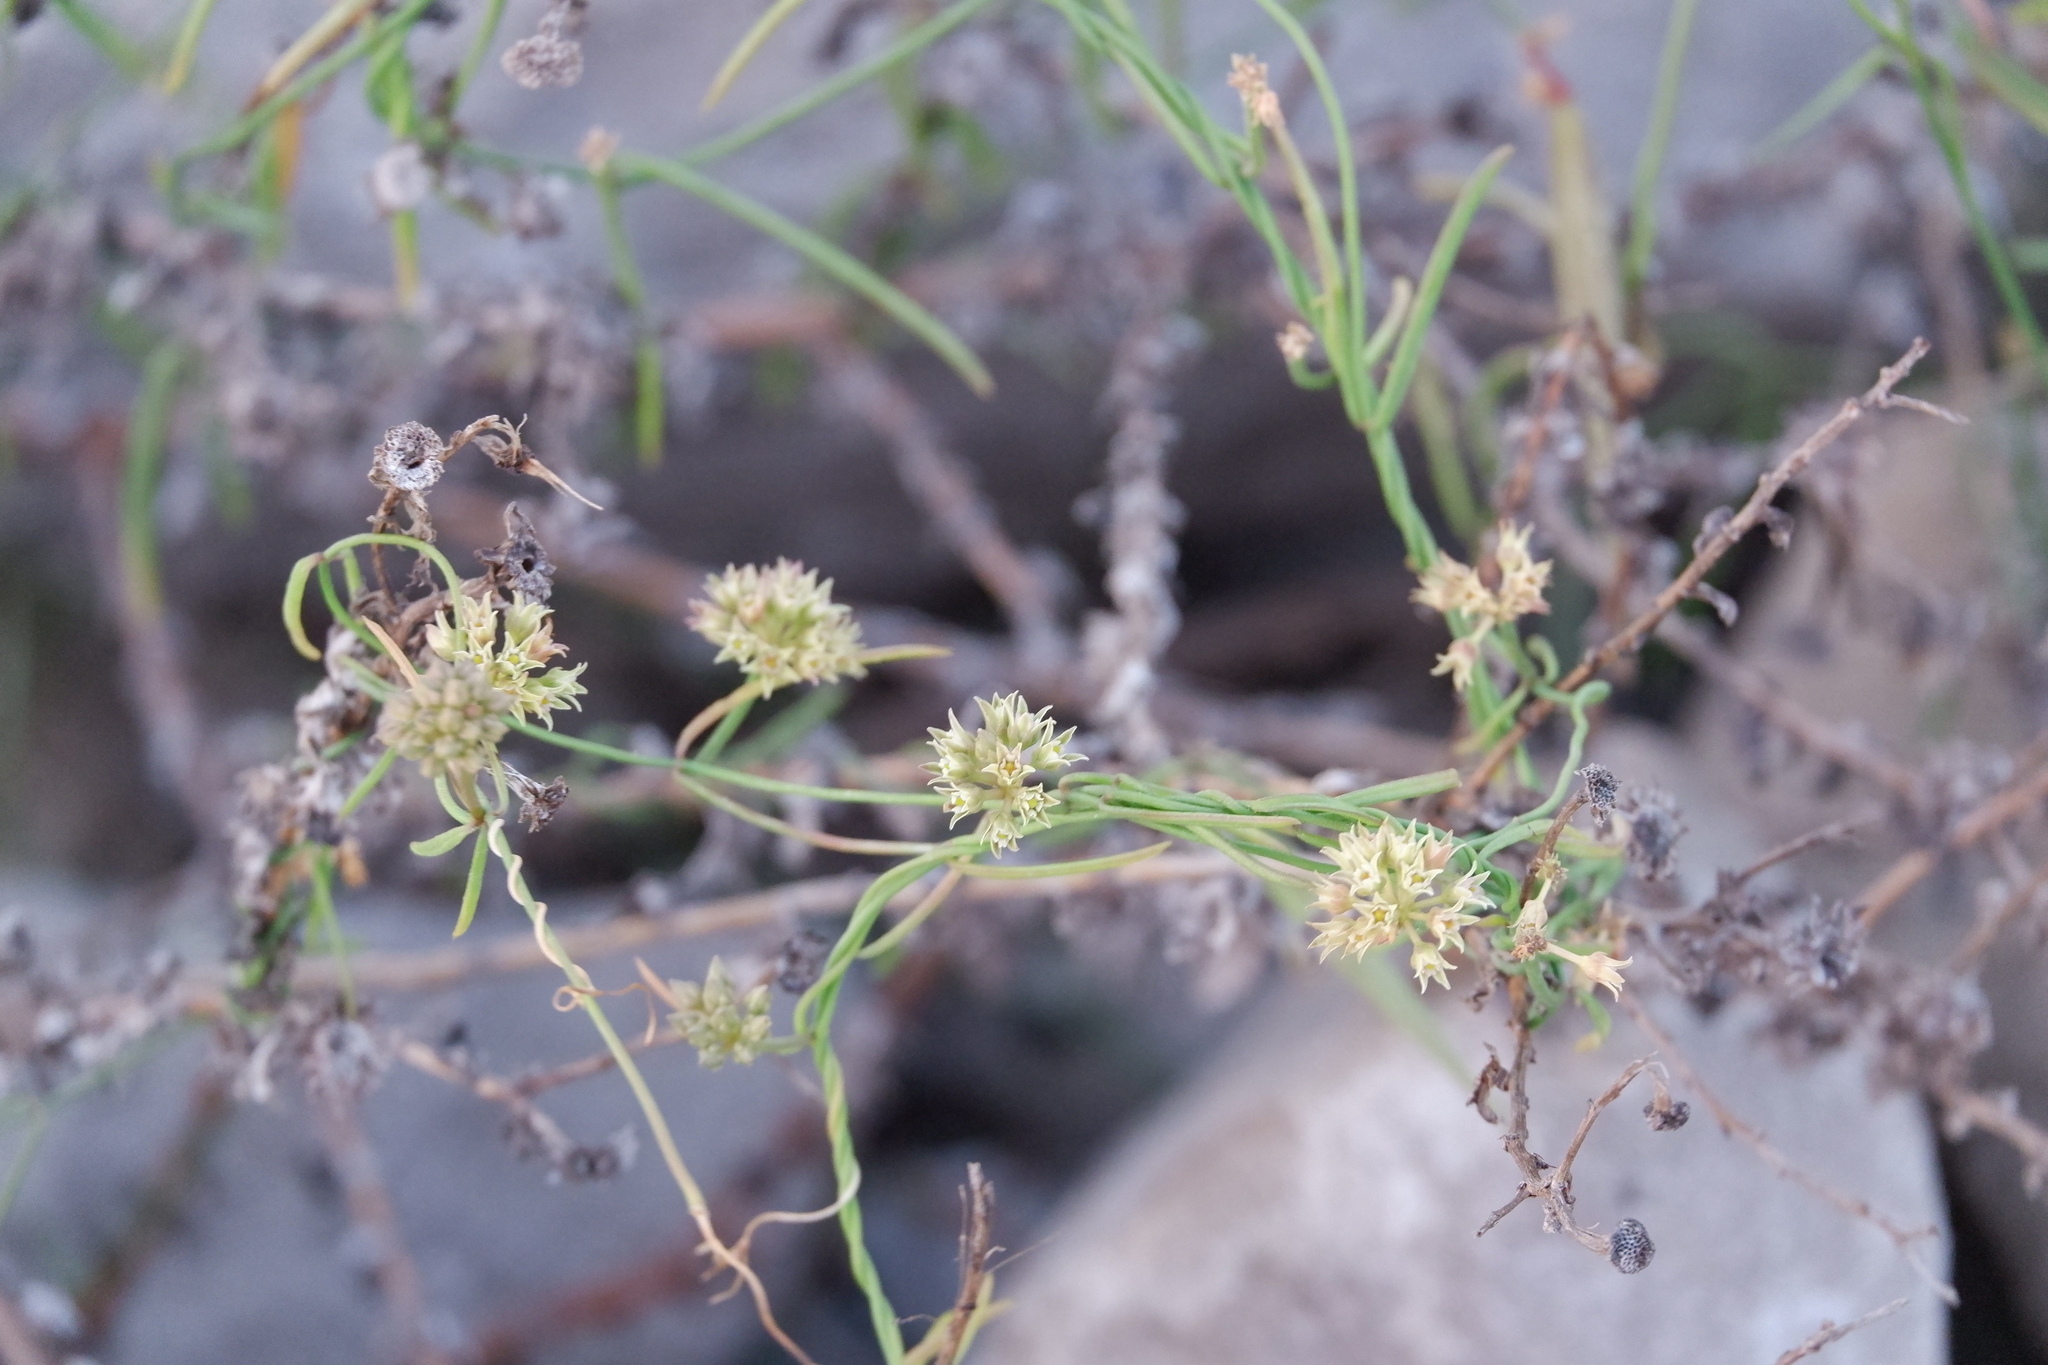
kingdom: Plantae
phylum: Tracheophyta
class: Magnoliopsida
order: Gentianales
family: Apocynaceae
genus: Pattalias
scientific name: Pattalias
